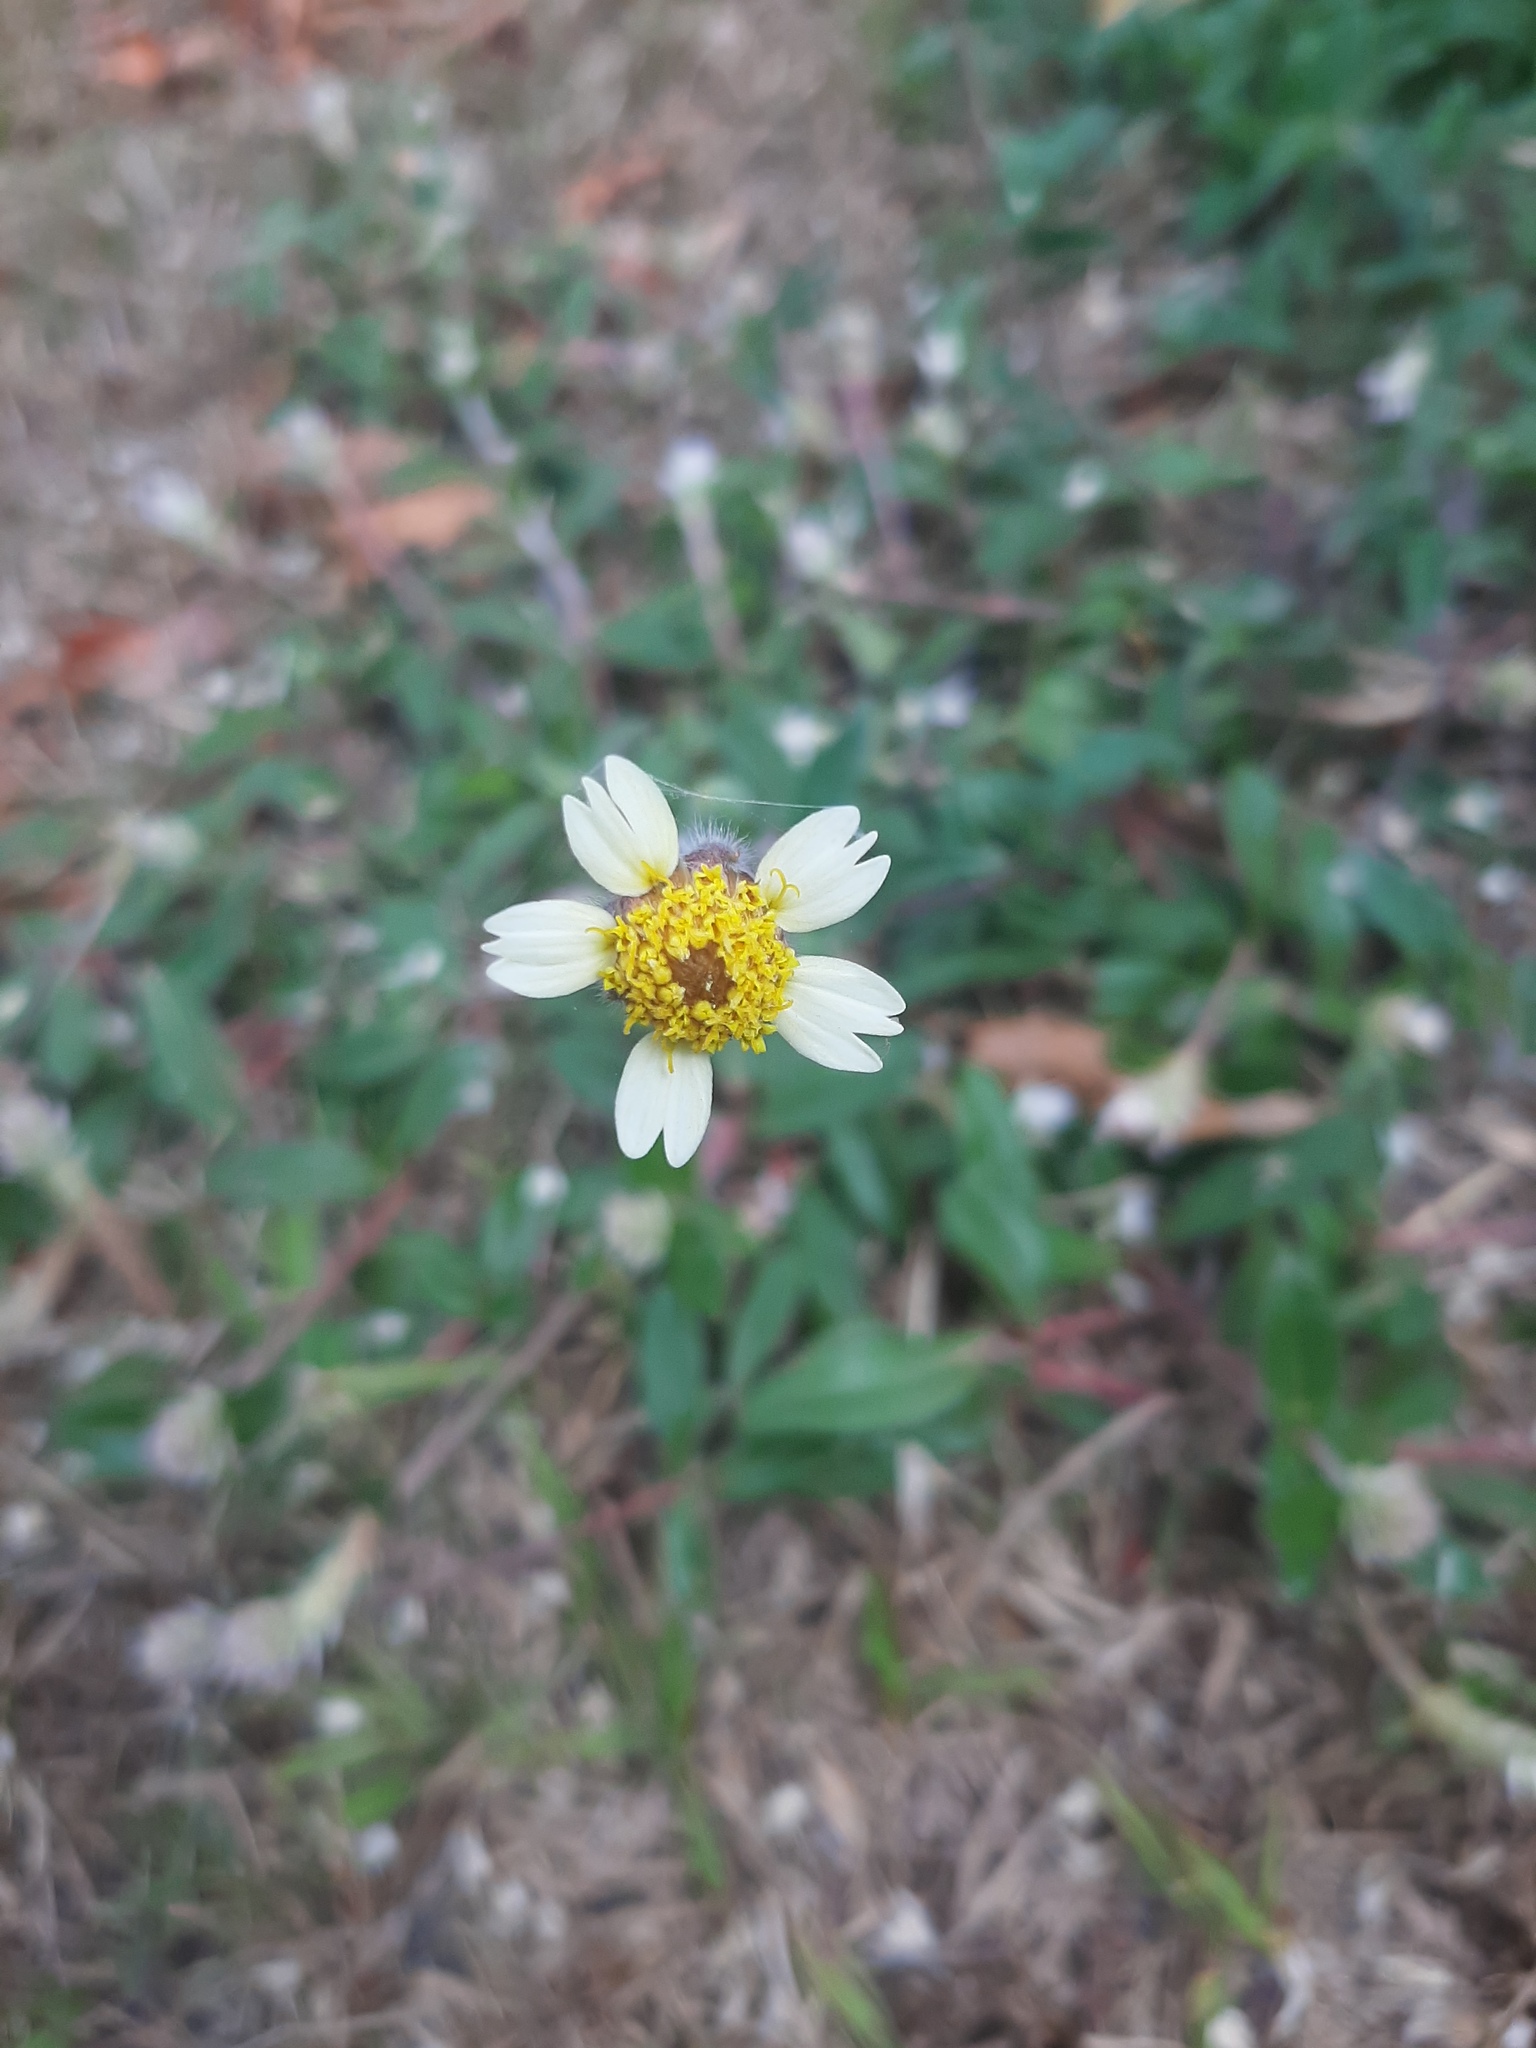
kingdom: Plantae
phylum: Tracheophyta
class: Magnoliopsida
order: Asterales
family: Asteraceae
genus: Tridax
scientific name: Tridax procumbens
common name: Coatbuttons
